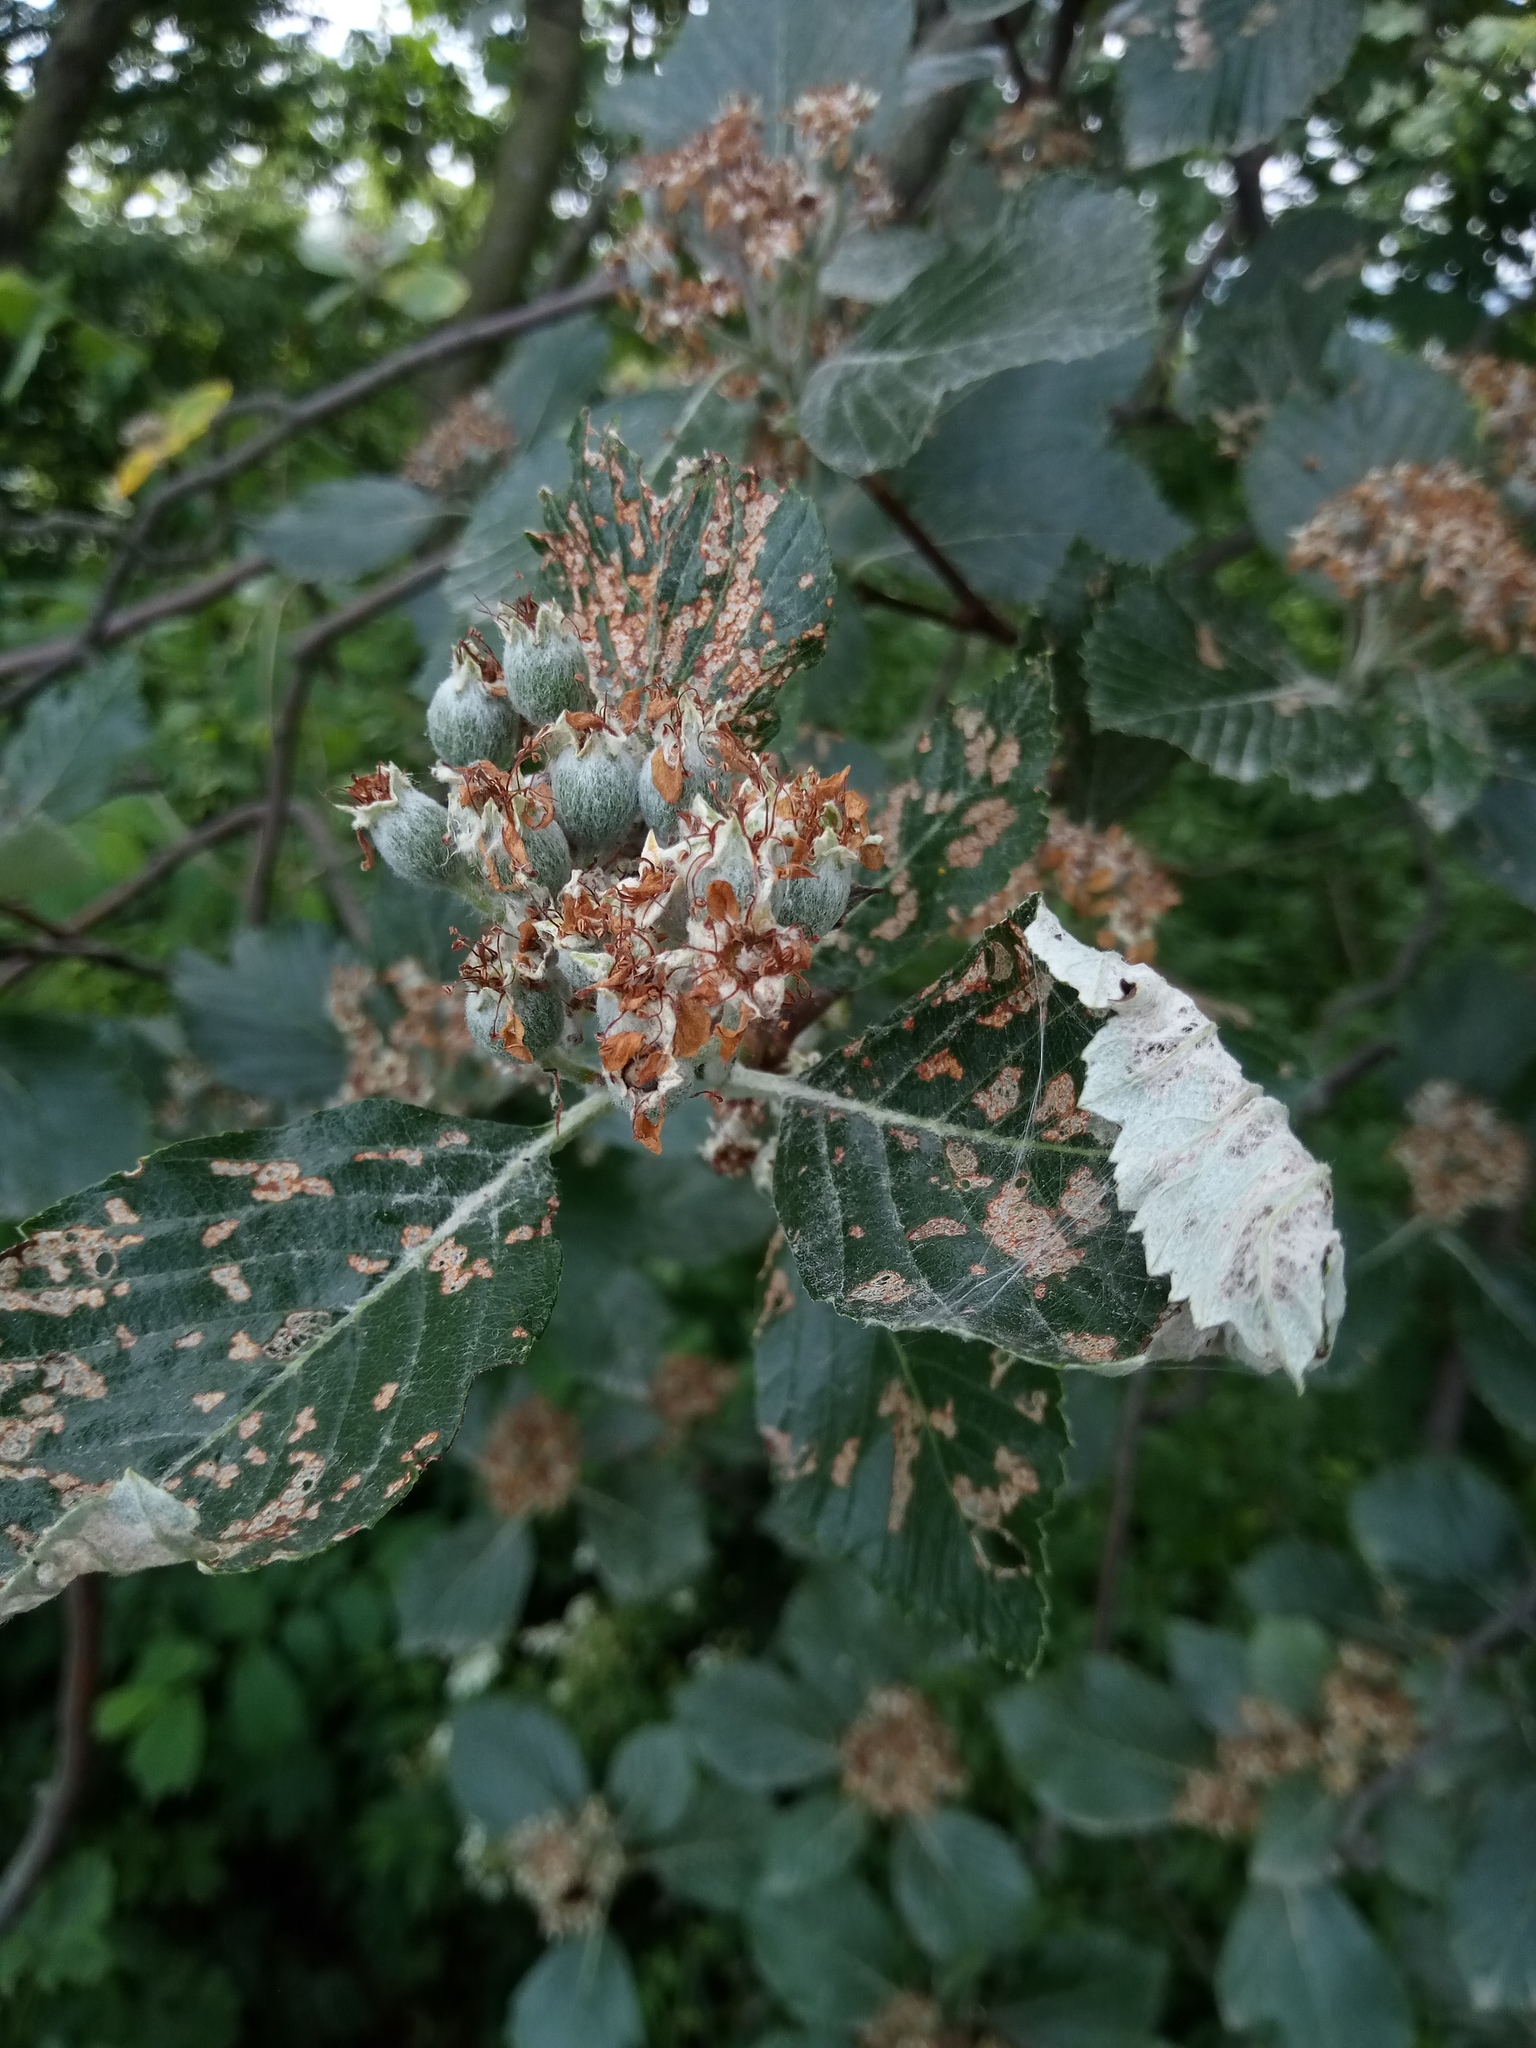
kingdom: Plantae
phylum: Tracheophyta
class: Magnoliopsida
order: Rosales
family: Rosaceae
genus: Aria
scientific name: Aria danubialis
